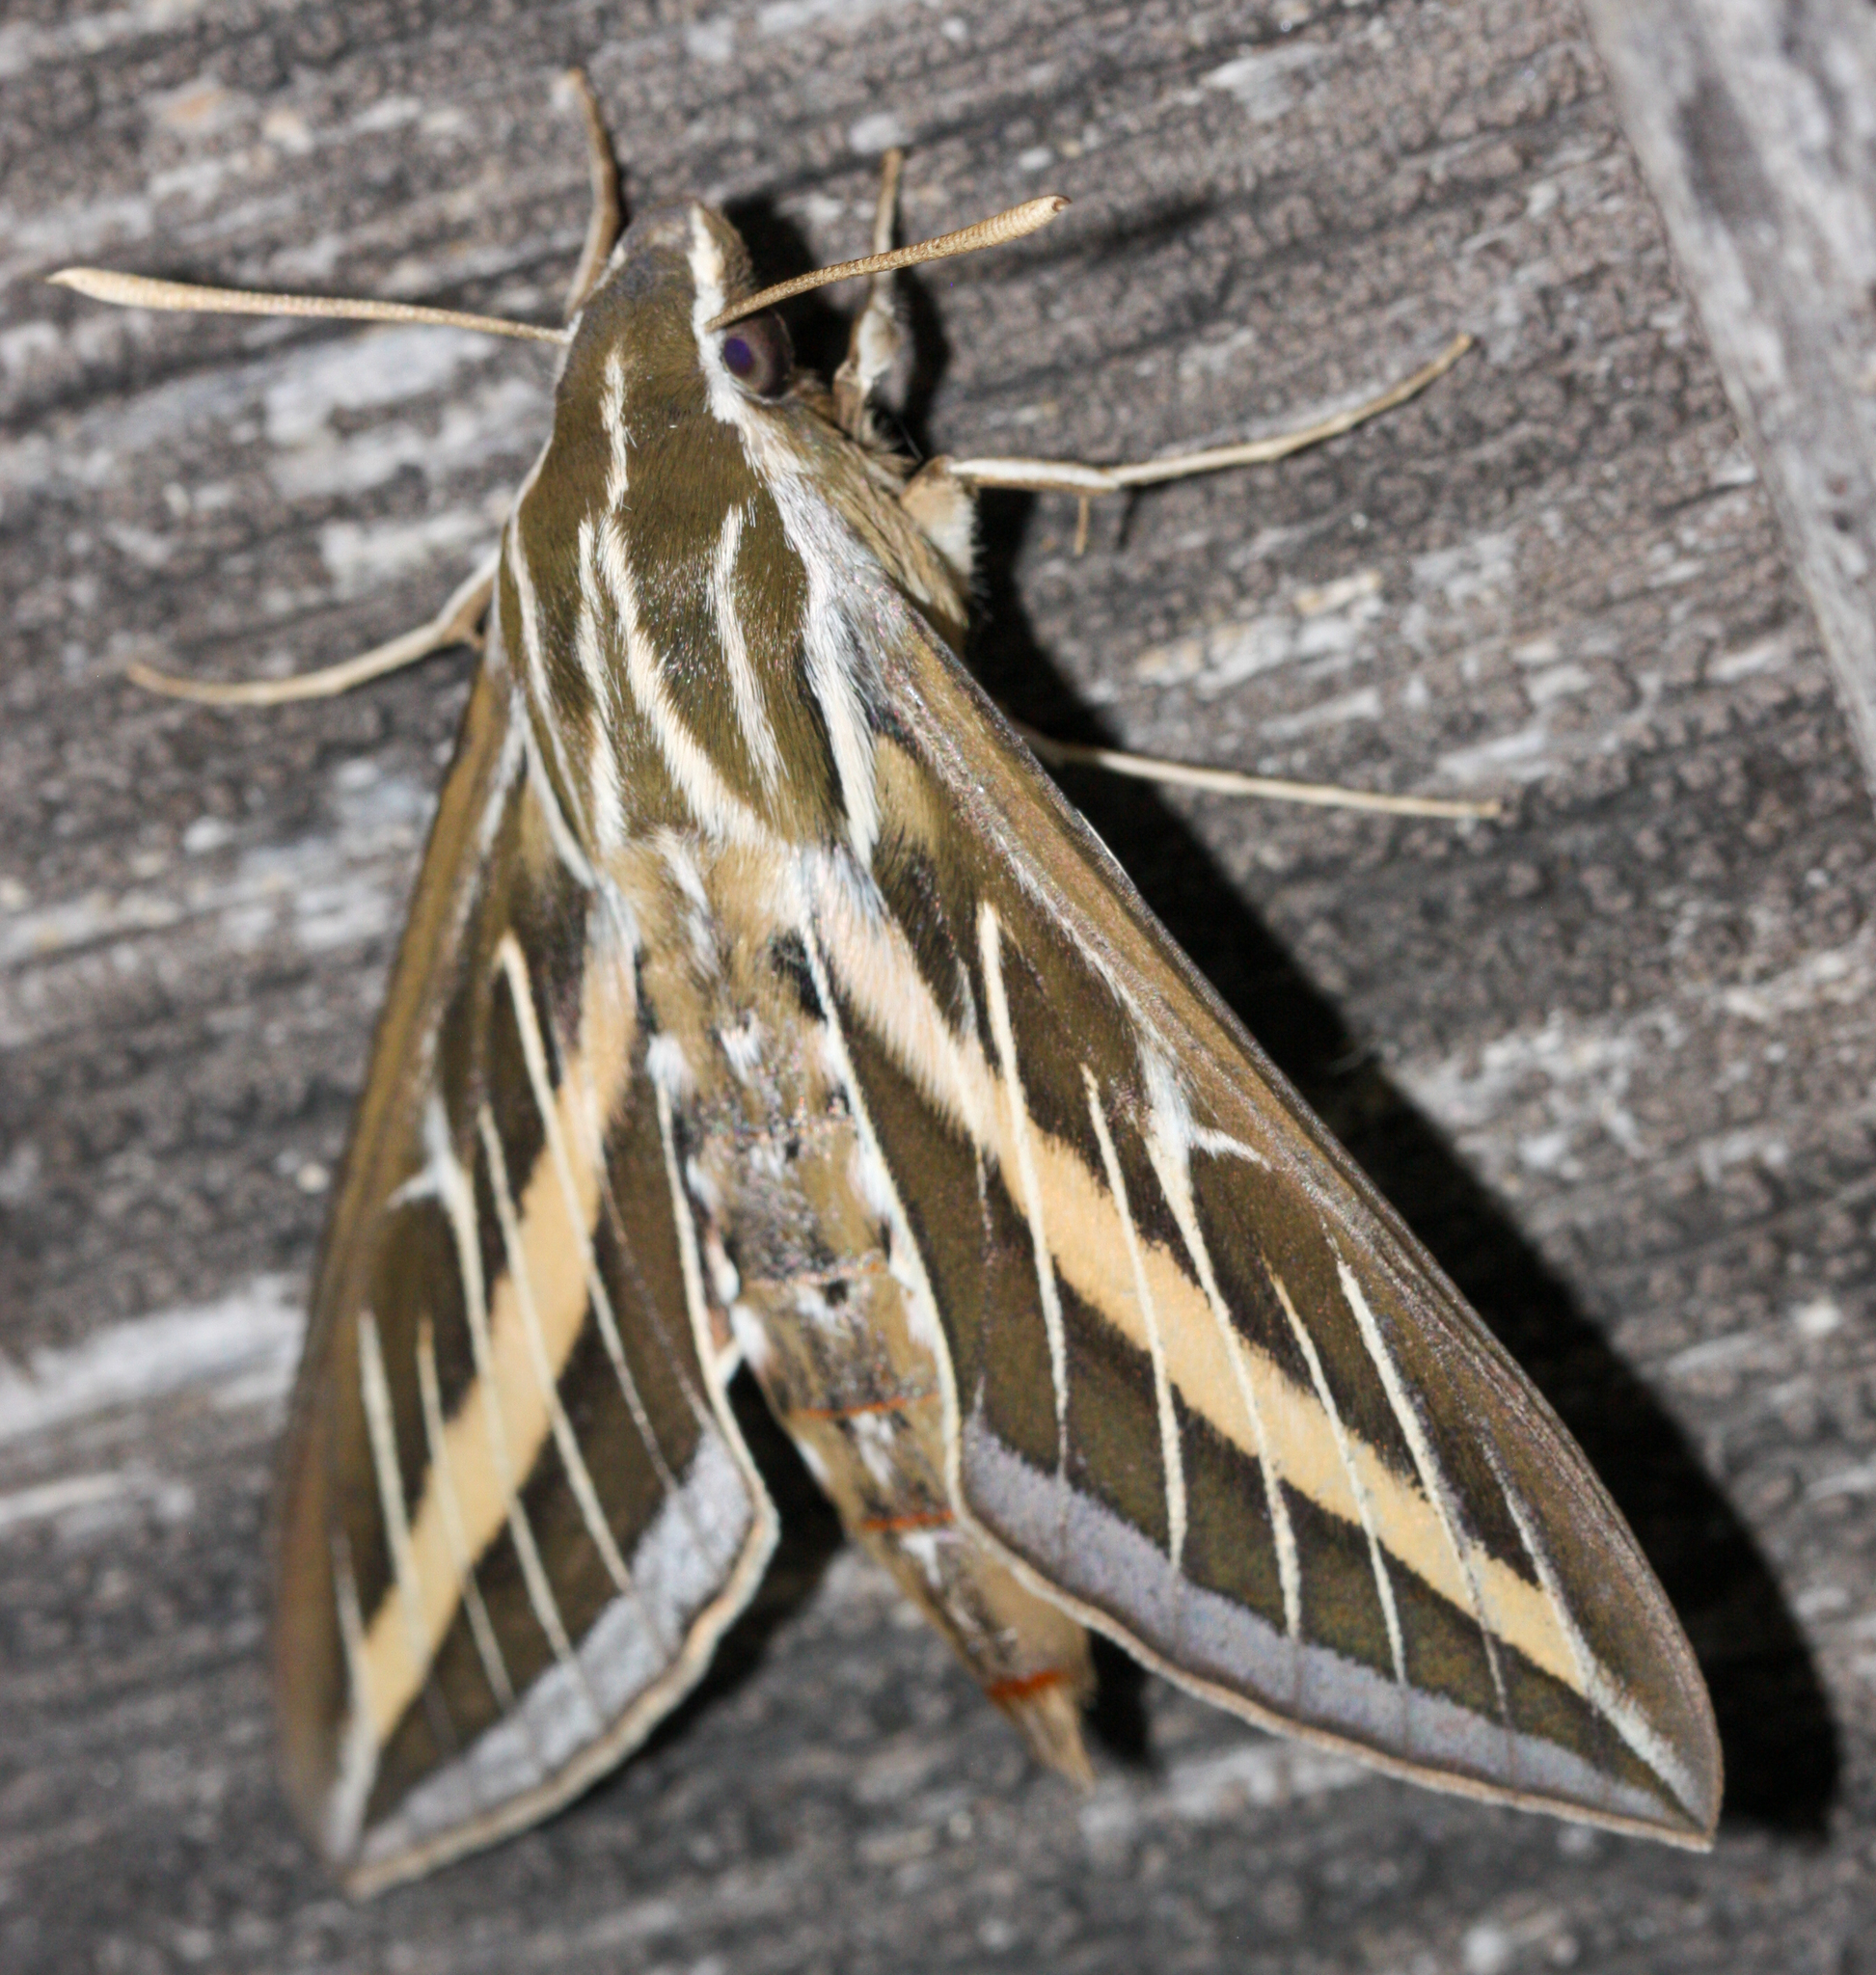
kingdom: Animalia
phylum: Arthropoda
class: Insecta
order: Lepidoptera
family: Sphingidae
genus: Hyles
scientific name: Hyles lineata
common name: White-lined sphinx
